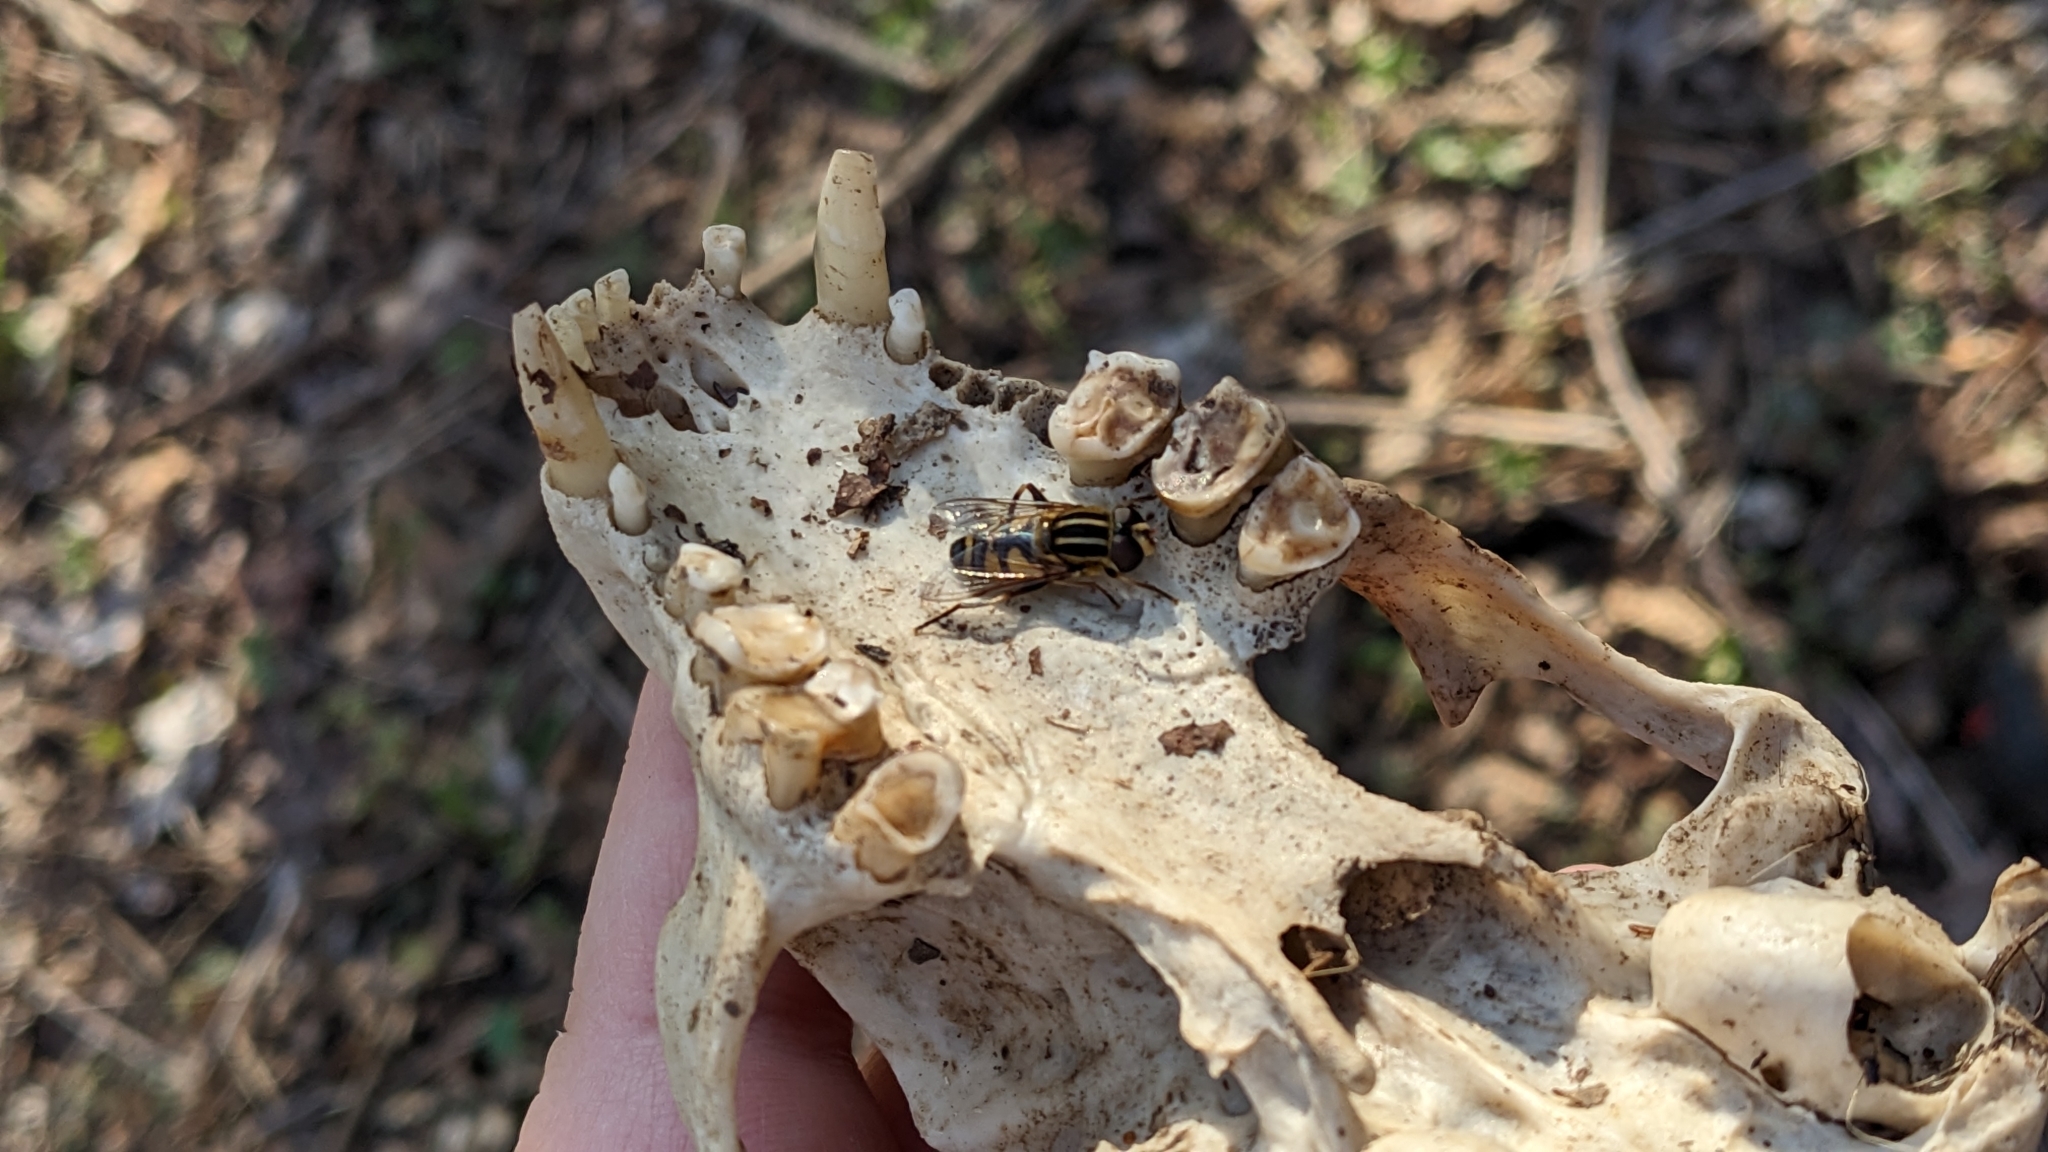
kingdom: Animalia
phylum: Arthropoda
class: Insecta
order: Diptera
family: Syrphidae
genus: Helophilus
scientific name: Helophilus fasciatus
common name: Narrow-headed marsh fly
